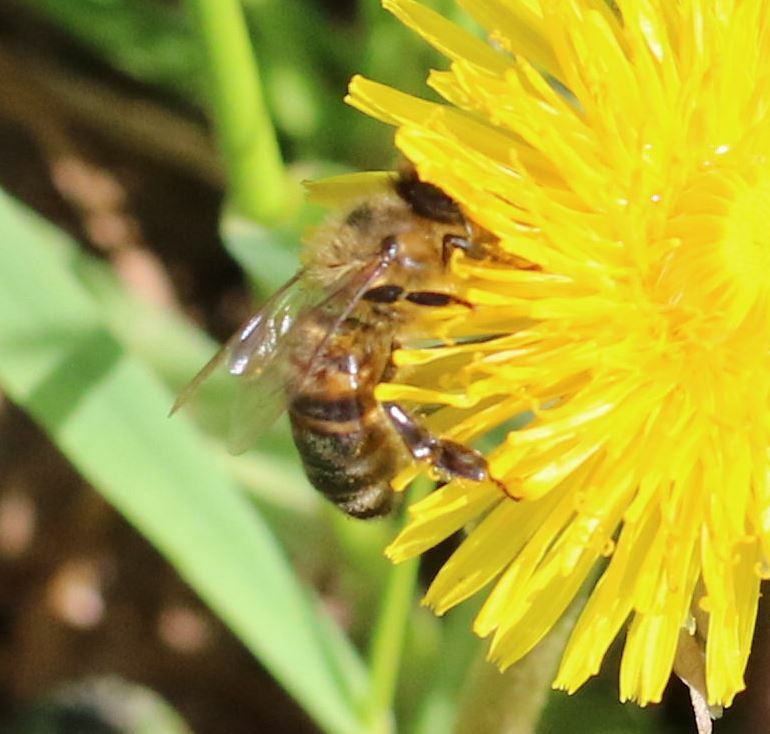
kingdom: Animalia
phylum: Arthropoda
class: Insecta
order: Hymenoptera
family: Apidae
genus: Apis
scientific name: Apis mellifera
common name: Honey bee
